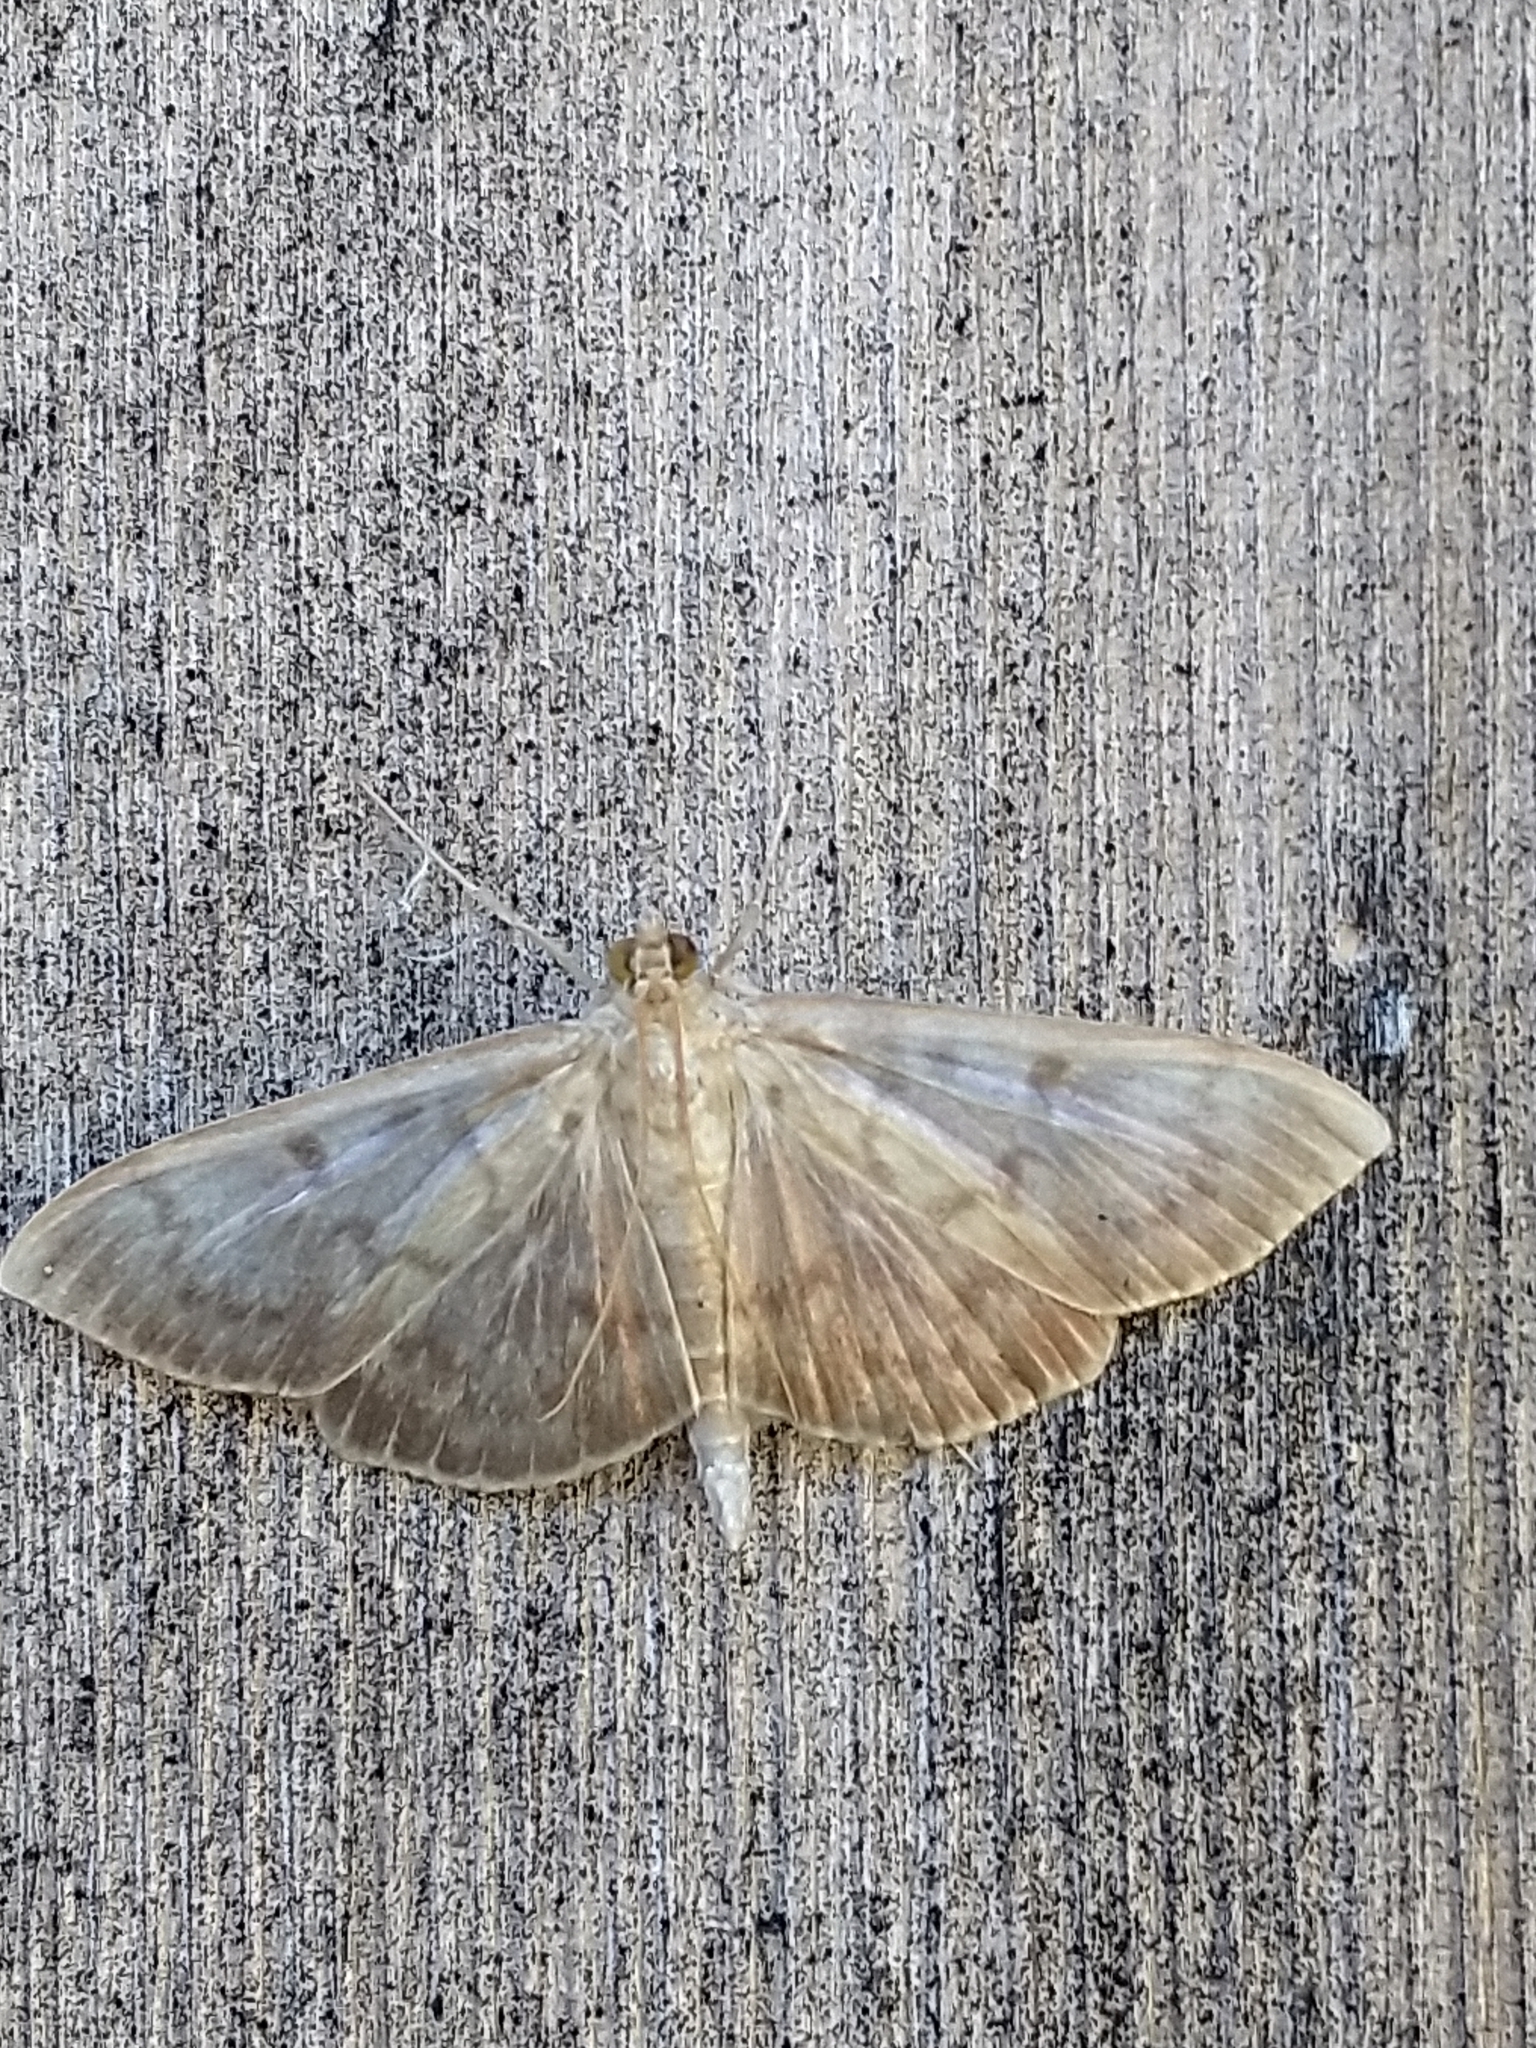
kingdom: Animalia
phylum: Arthropoda
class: Insecta
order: Lepidoptera
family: Crambidae
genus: Patania
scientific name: Patania ruralis
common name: Mother of pearl
